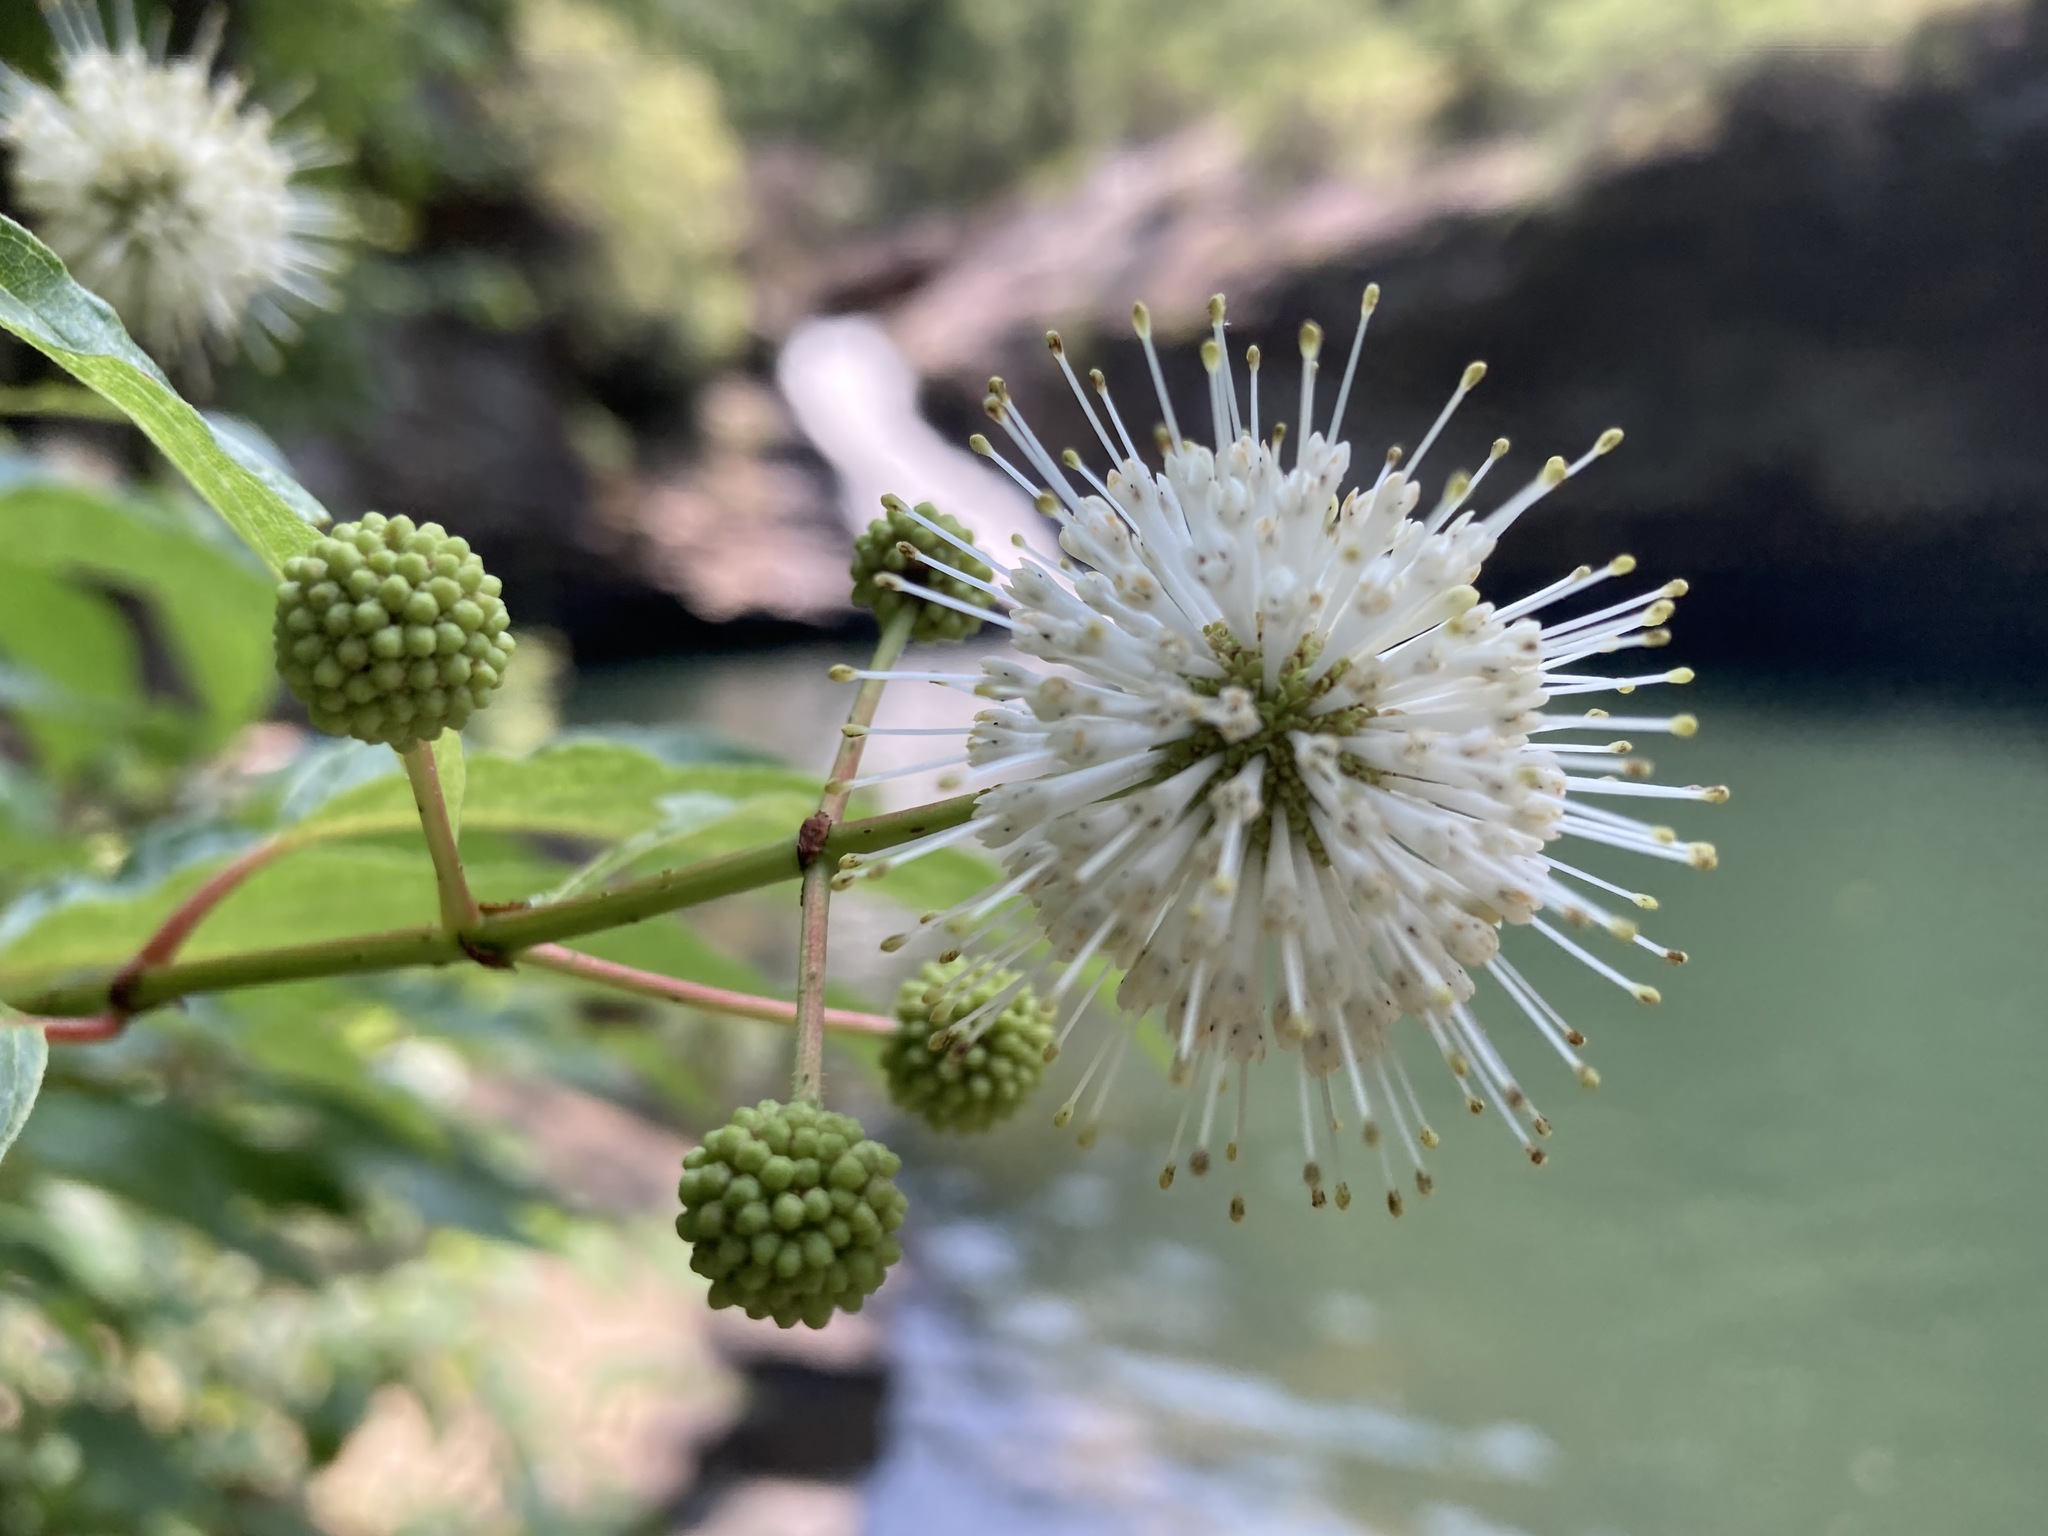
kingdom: Plantae
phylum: Tracheophyta
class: Magnoliopsida
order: Gentianales
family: Rubiaceae
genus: Cephalanthus
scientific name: Cephalanthus occidentalis
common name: Button-willow
